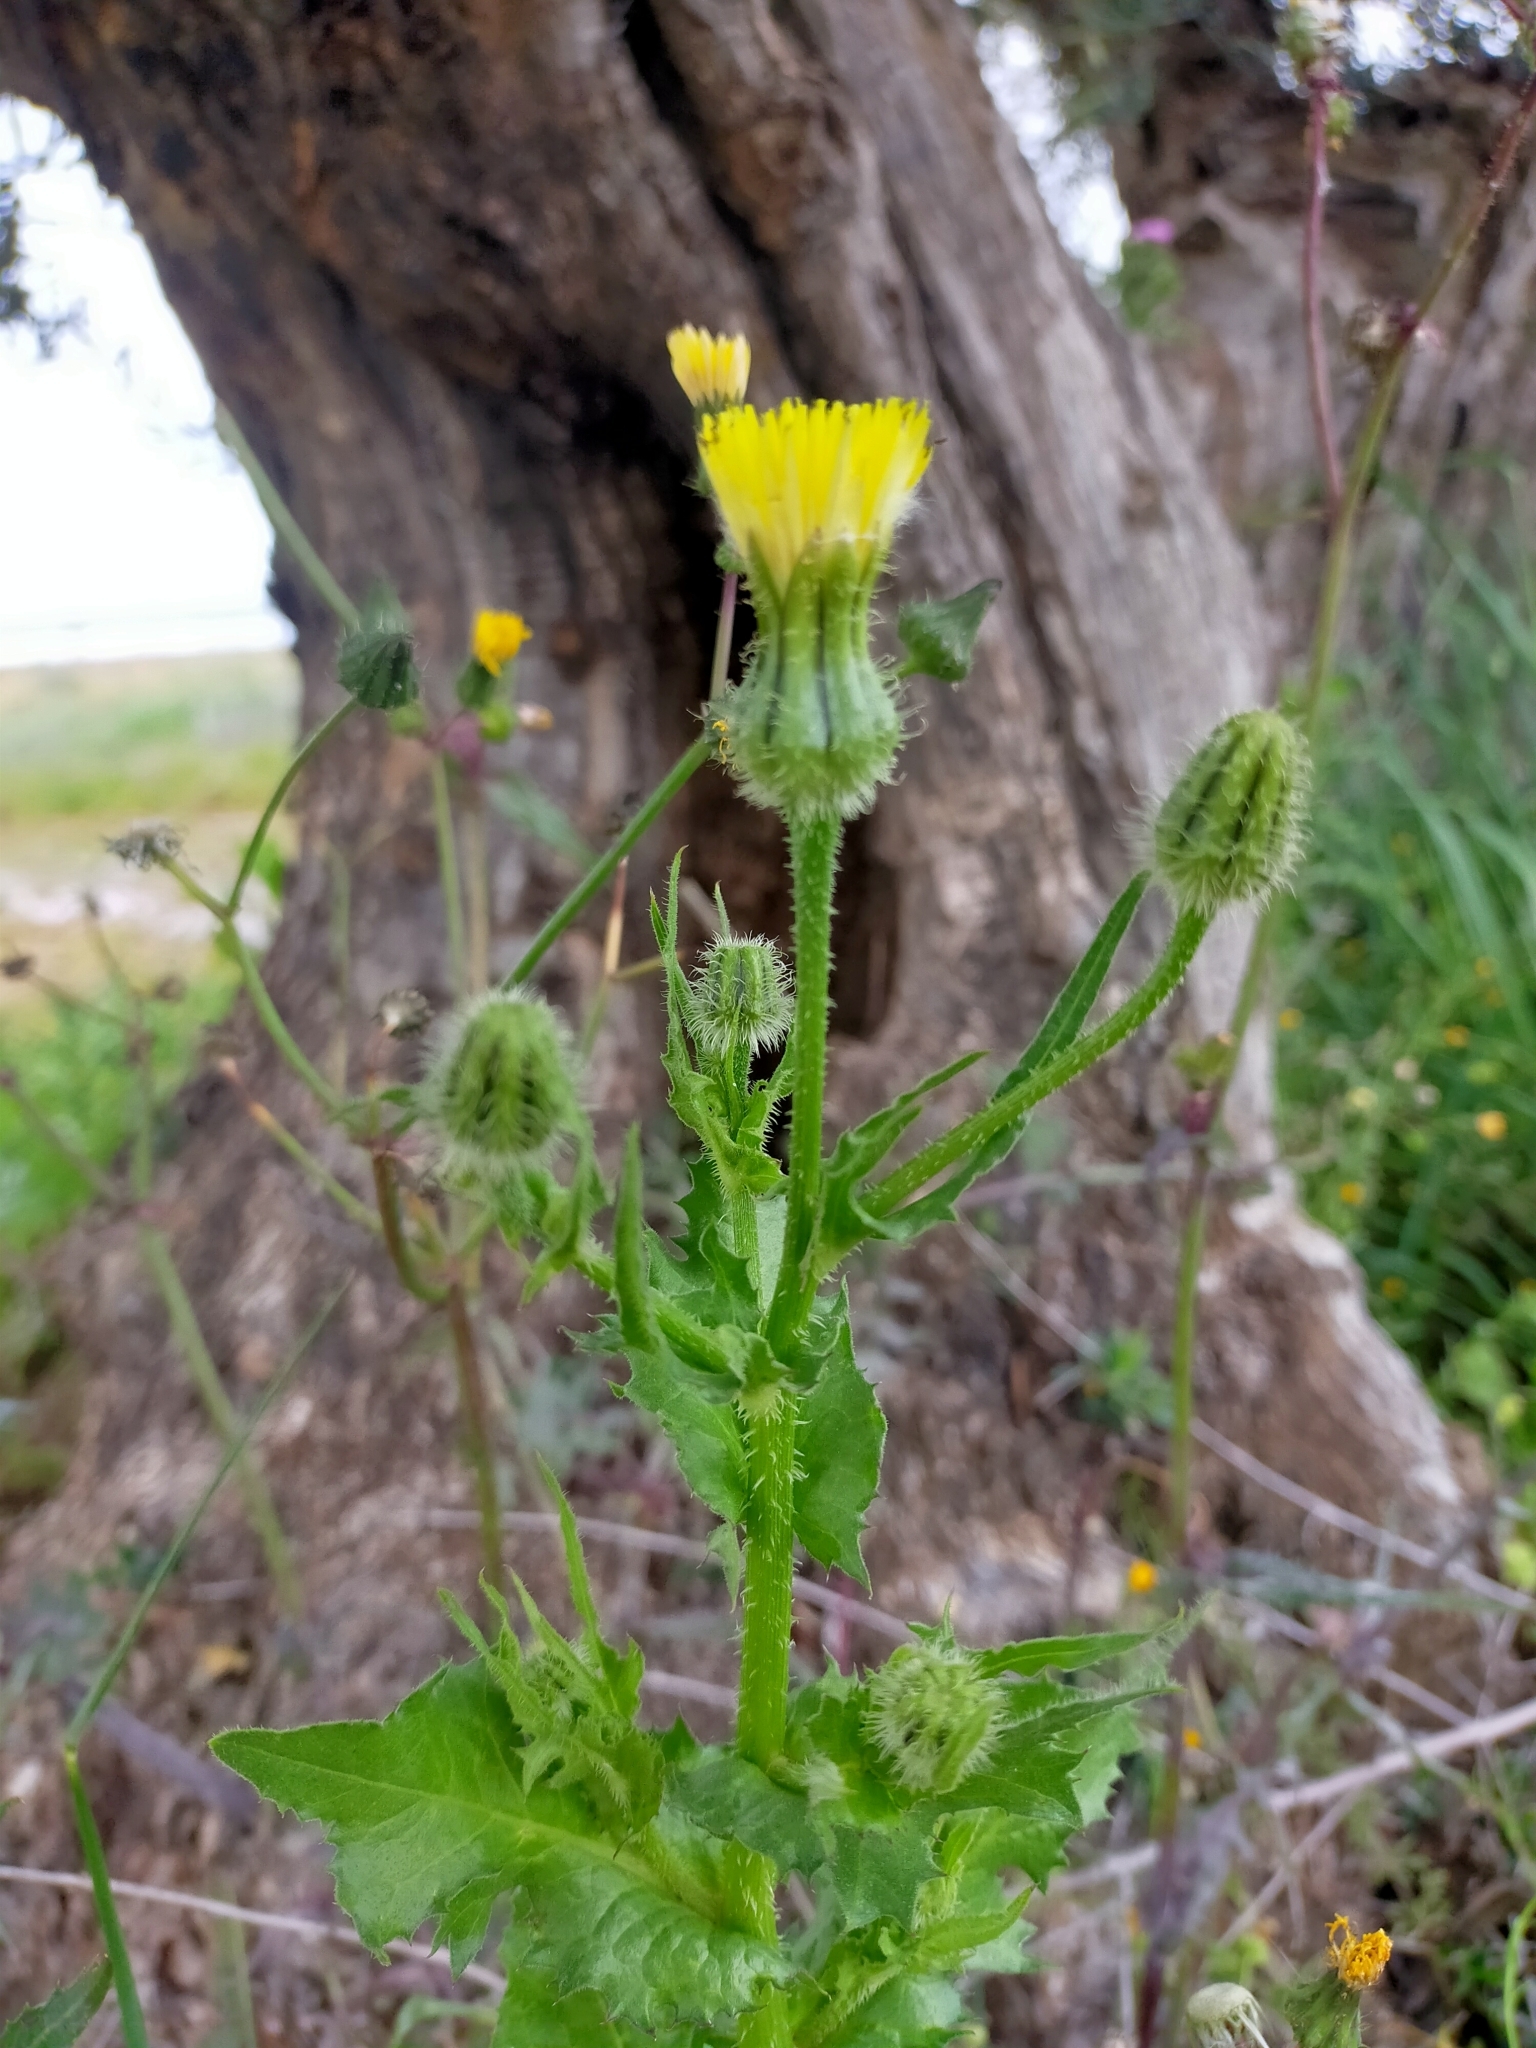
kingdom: Plantae
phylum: Tracheophyta
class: Magnoliopsida
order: Asterales
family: Asteraceae
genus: Urospermum
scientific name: Urospermum picroides
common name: False hawkbit
